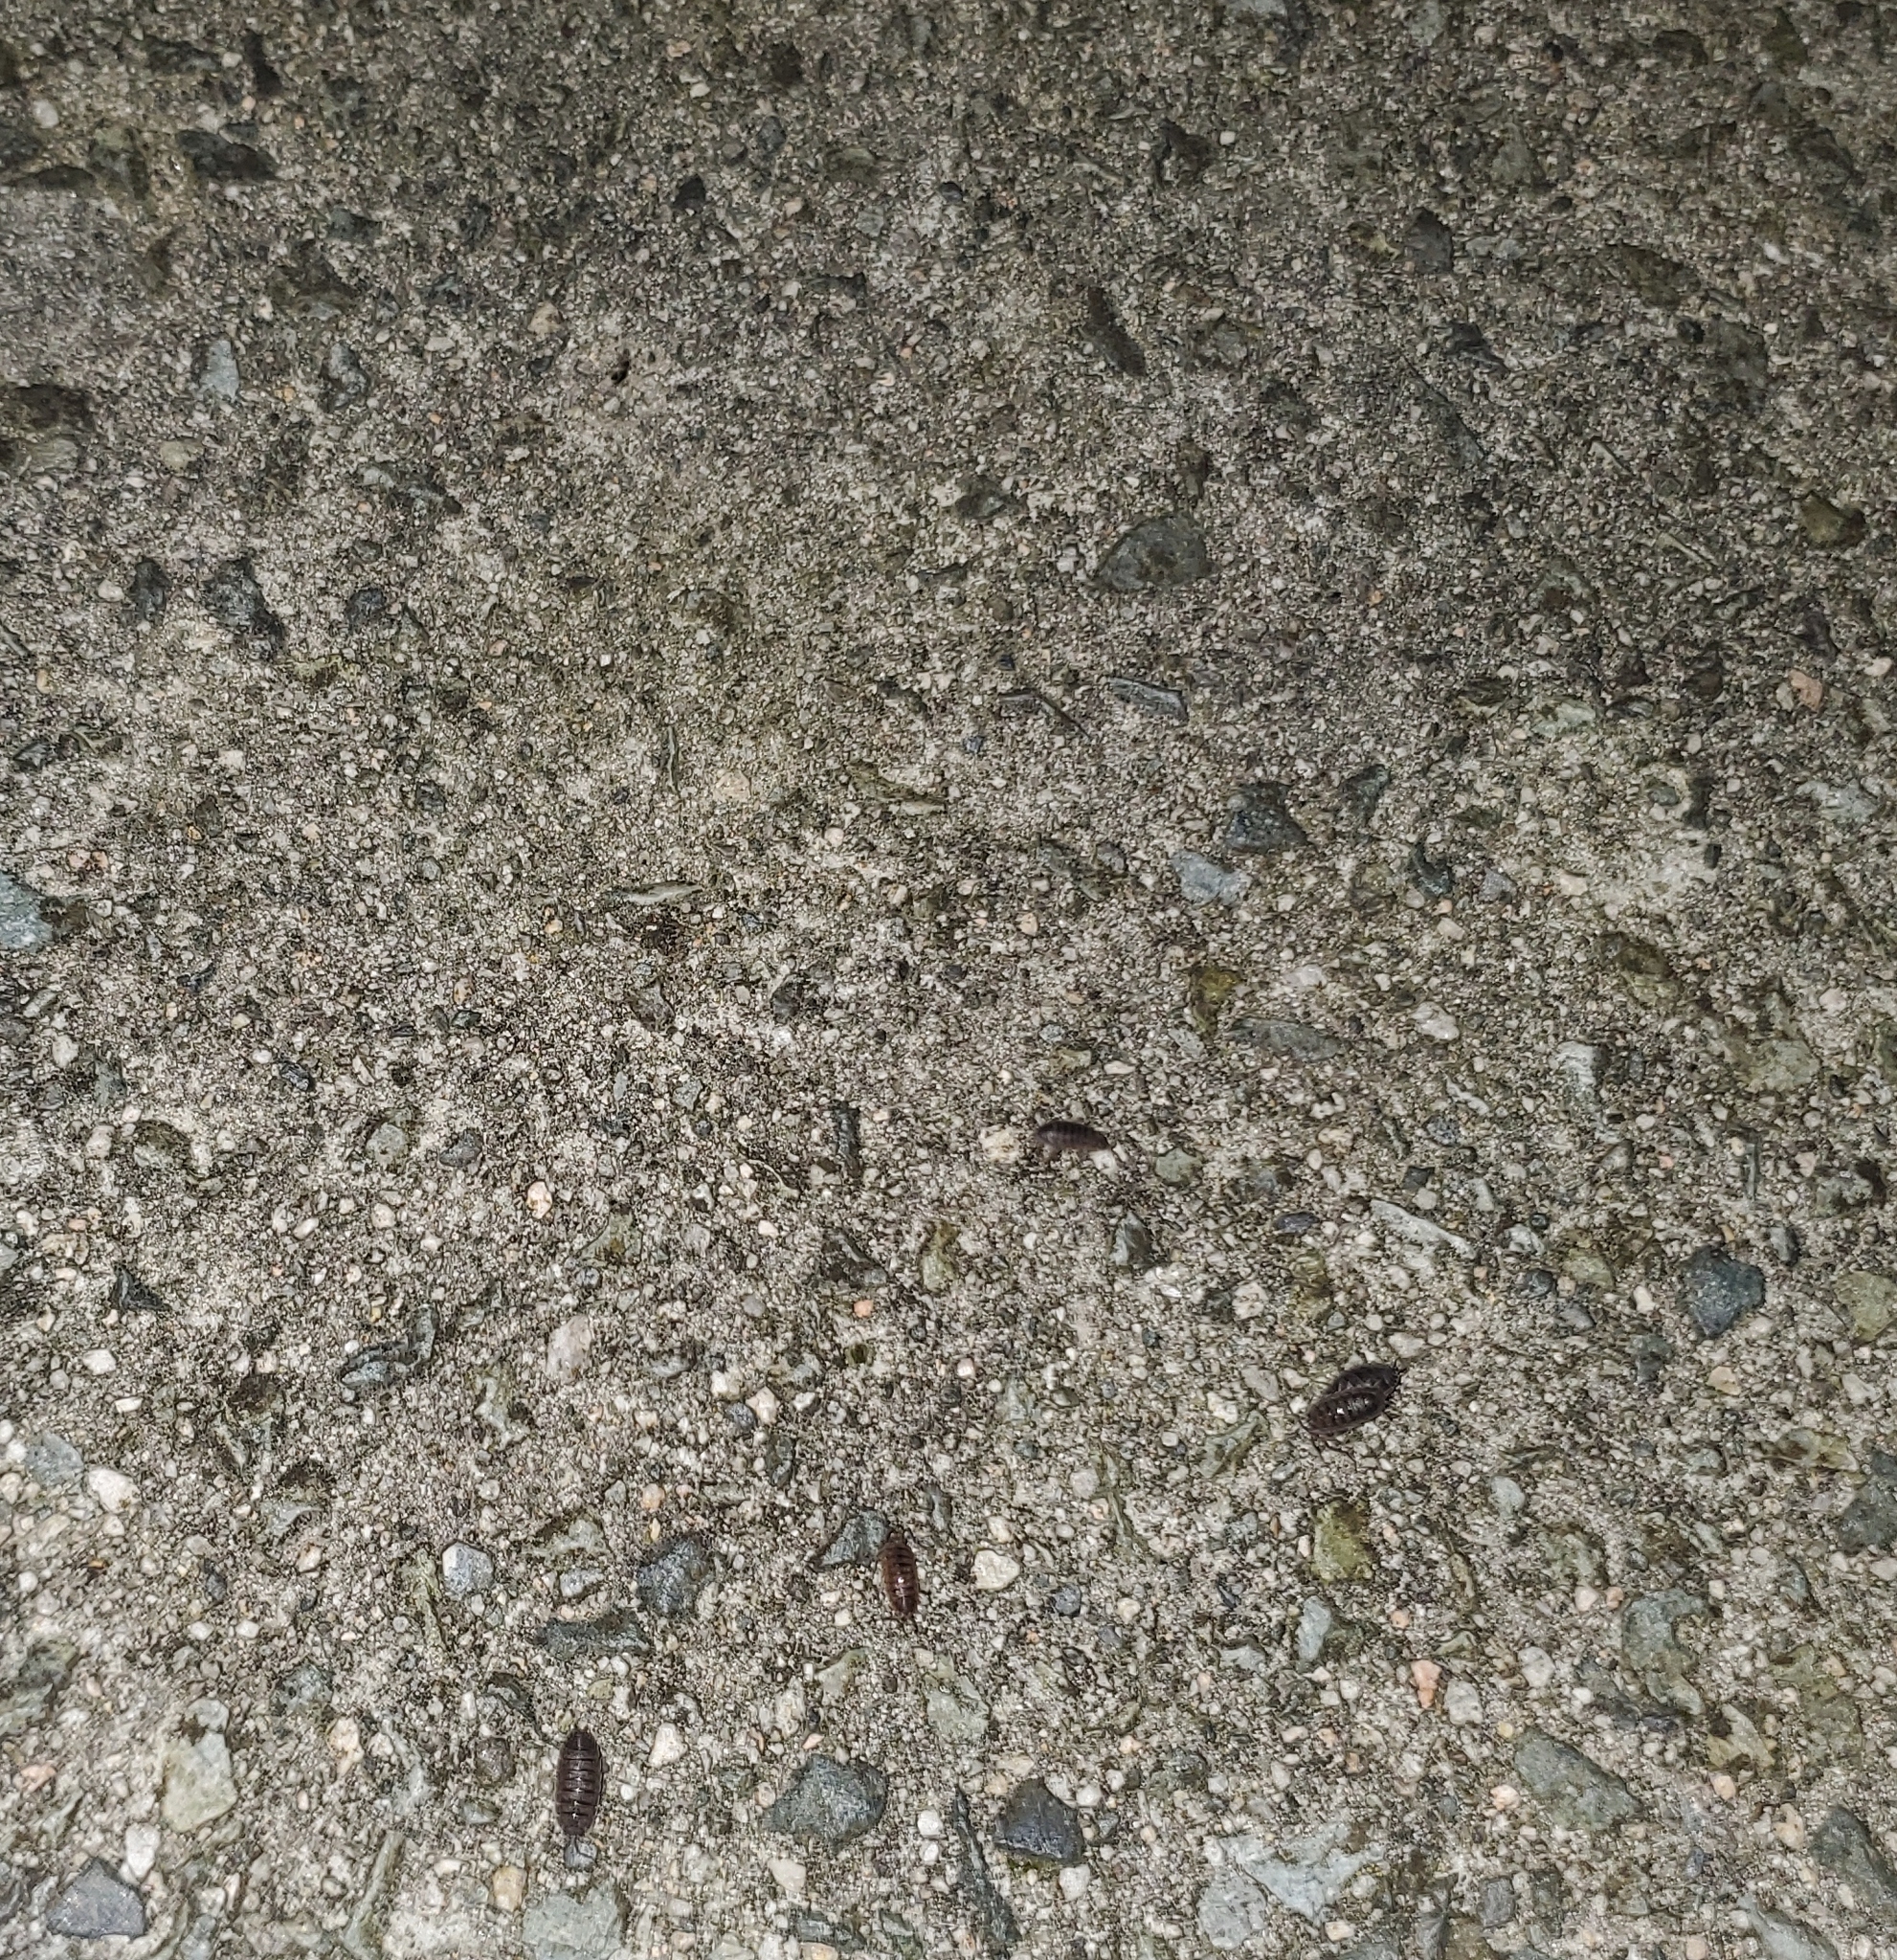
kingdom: Animalia
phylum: Arthropoda
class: Malacostraca
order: Isopoda
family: Porcellionidae
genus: Porcellio
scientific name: Porcellio scaber
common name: Common rough woodlouse
